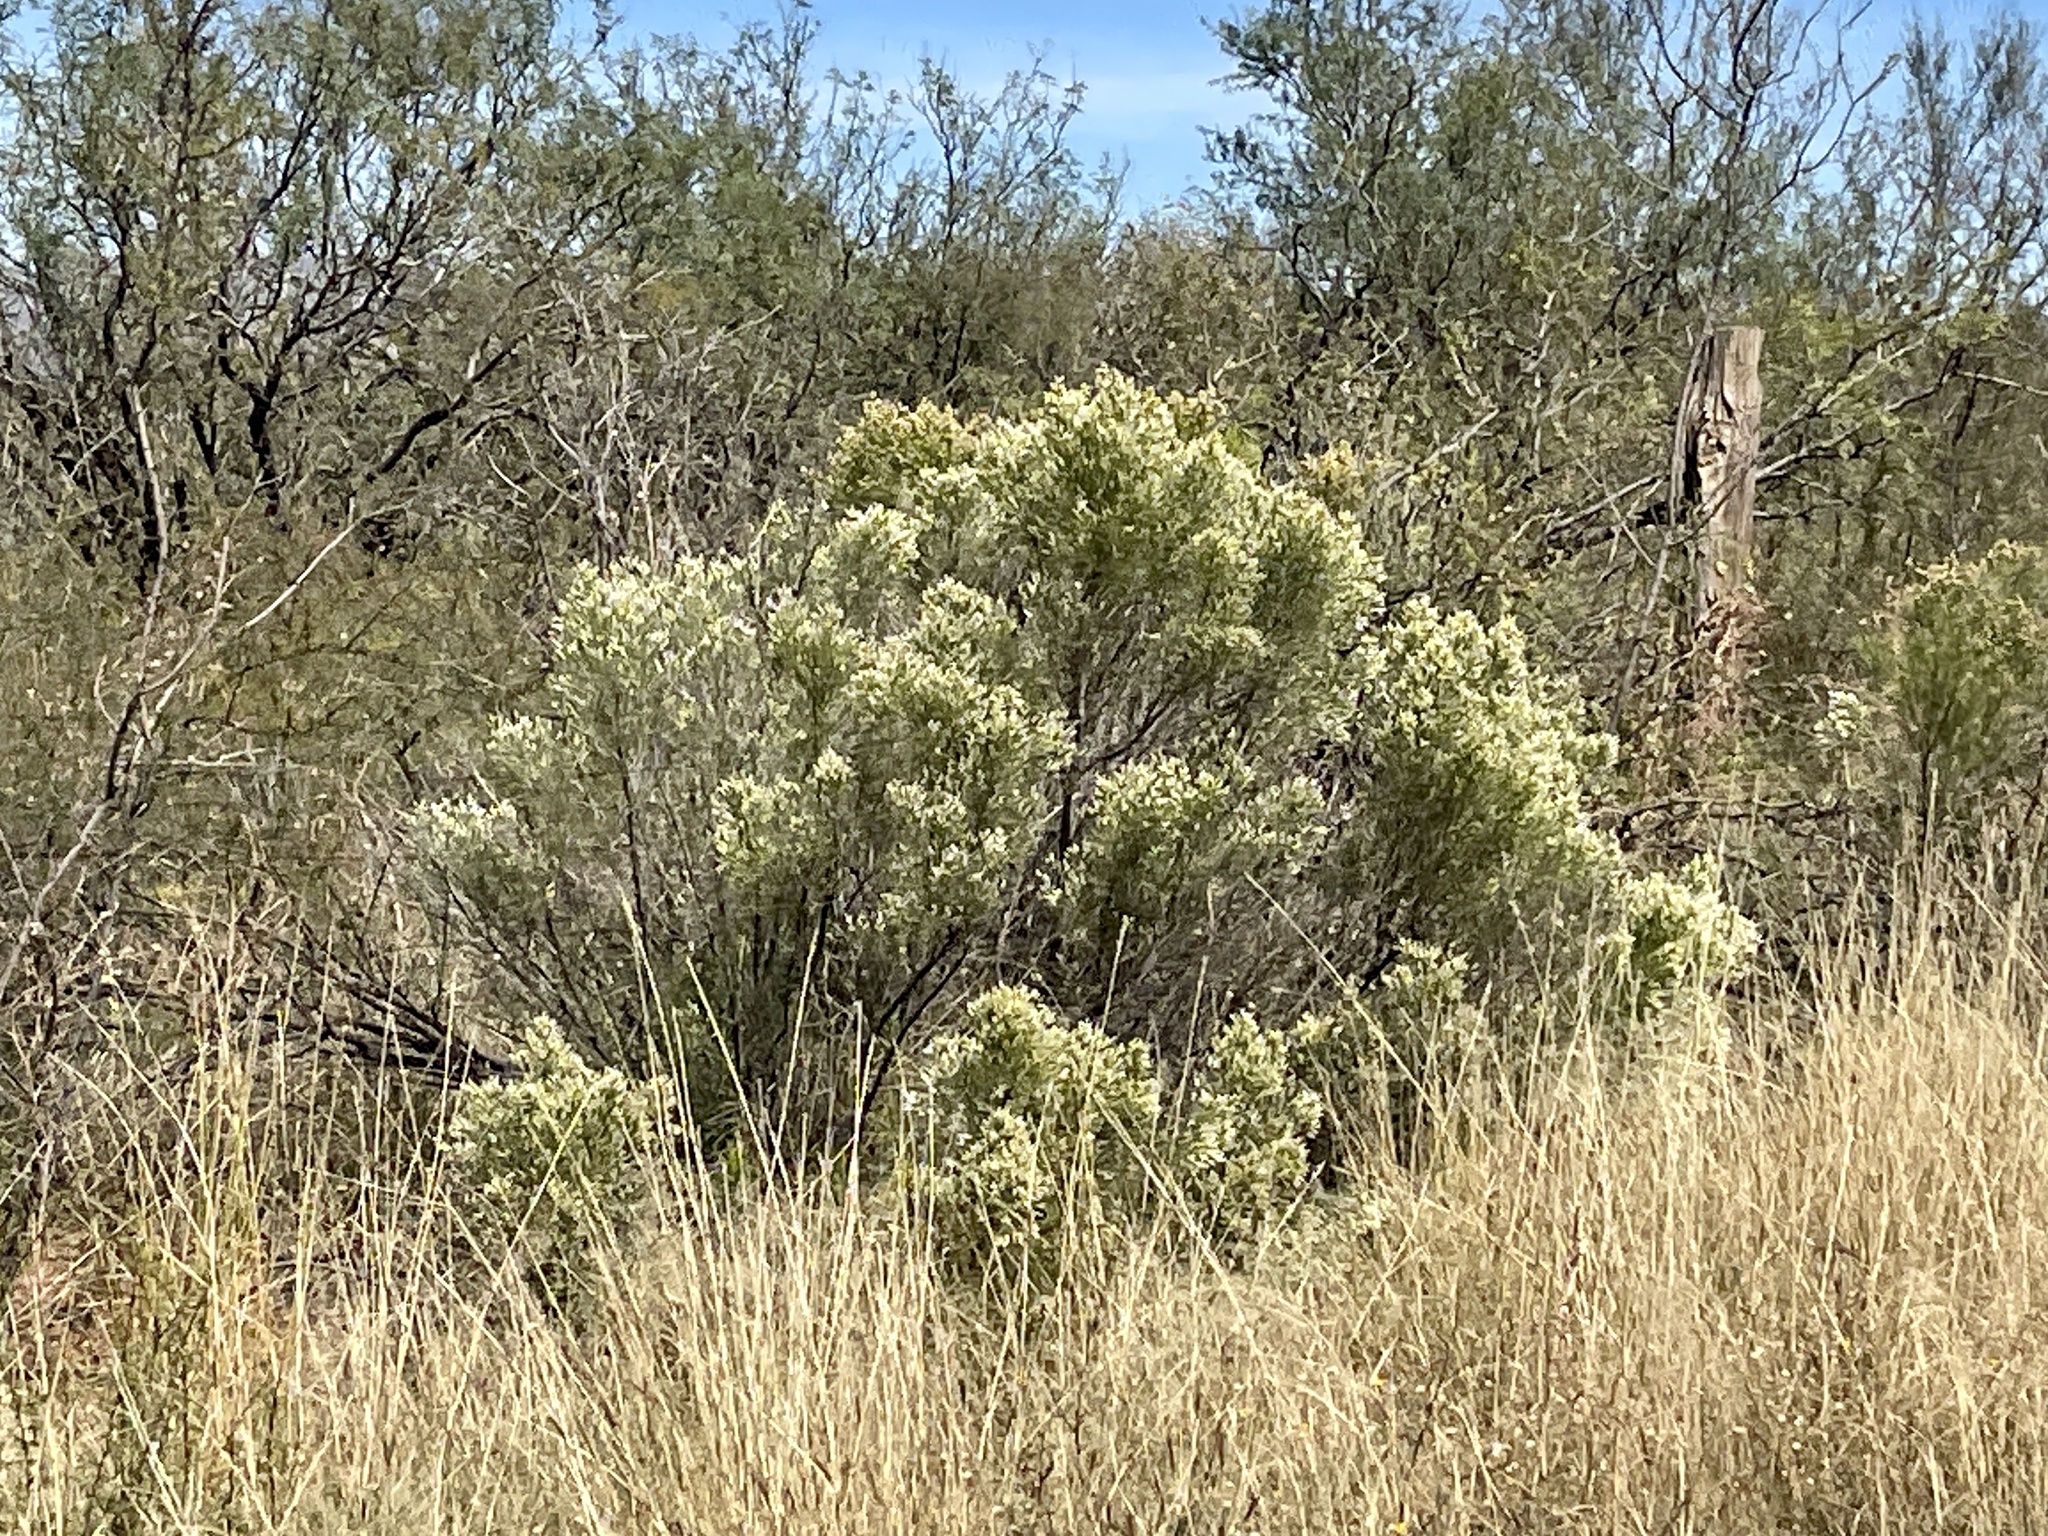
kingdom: Plantae
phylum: Tracheophyta
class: Magnoliopsida
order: Asterales
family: Asteraceae
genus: Baccharis
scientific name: Baccharis sarothroides
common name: Desert-broom
